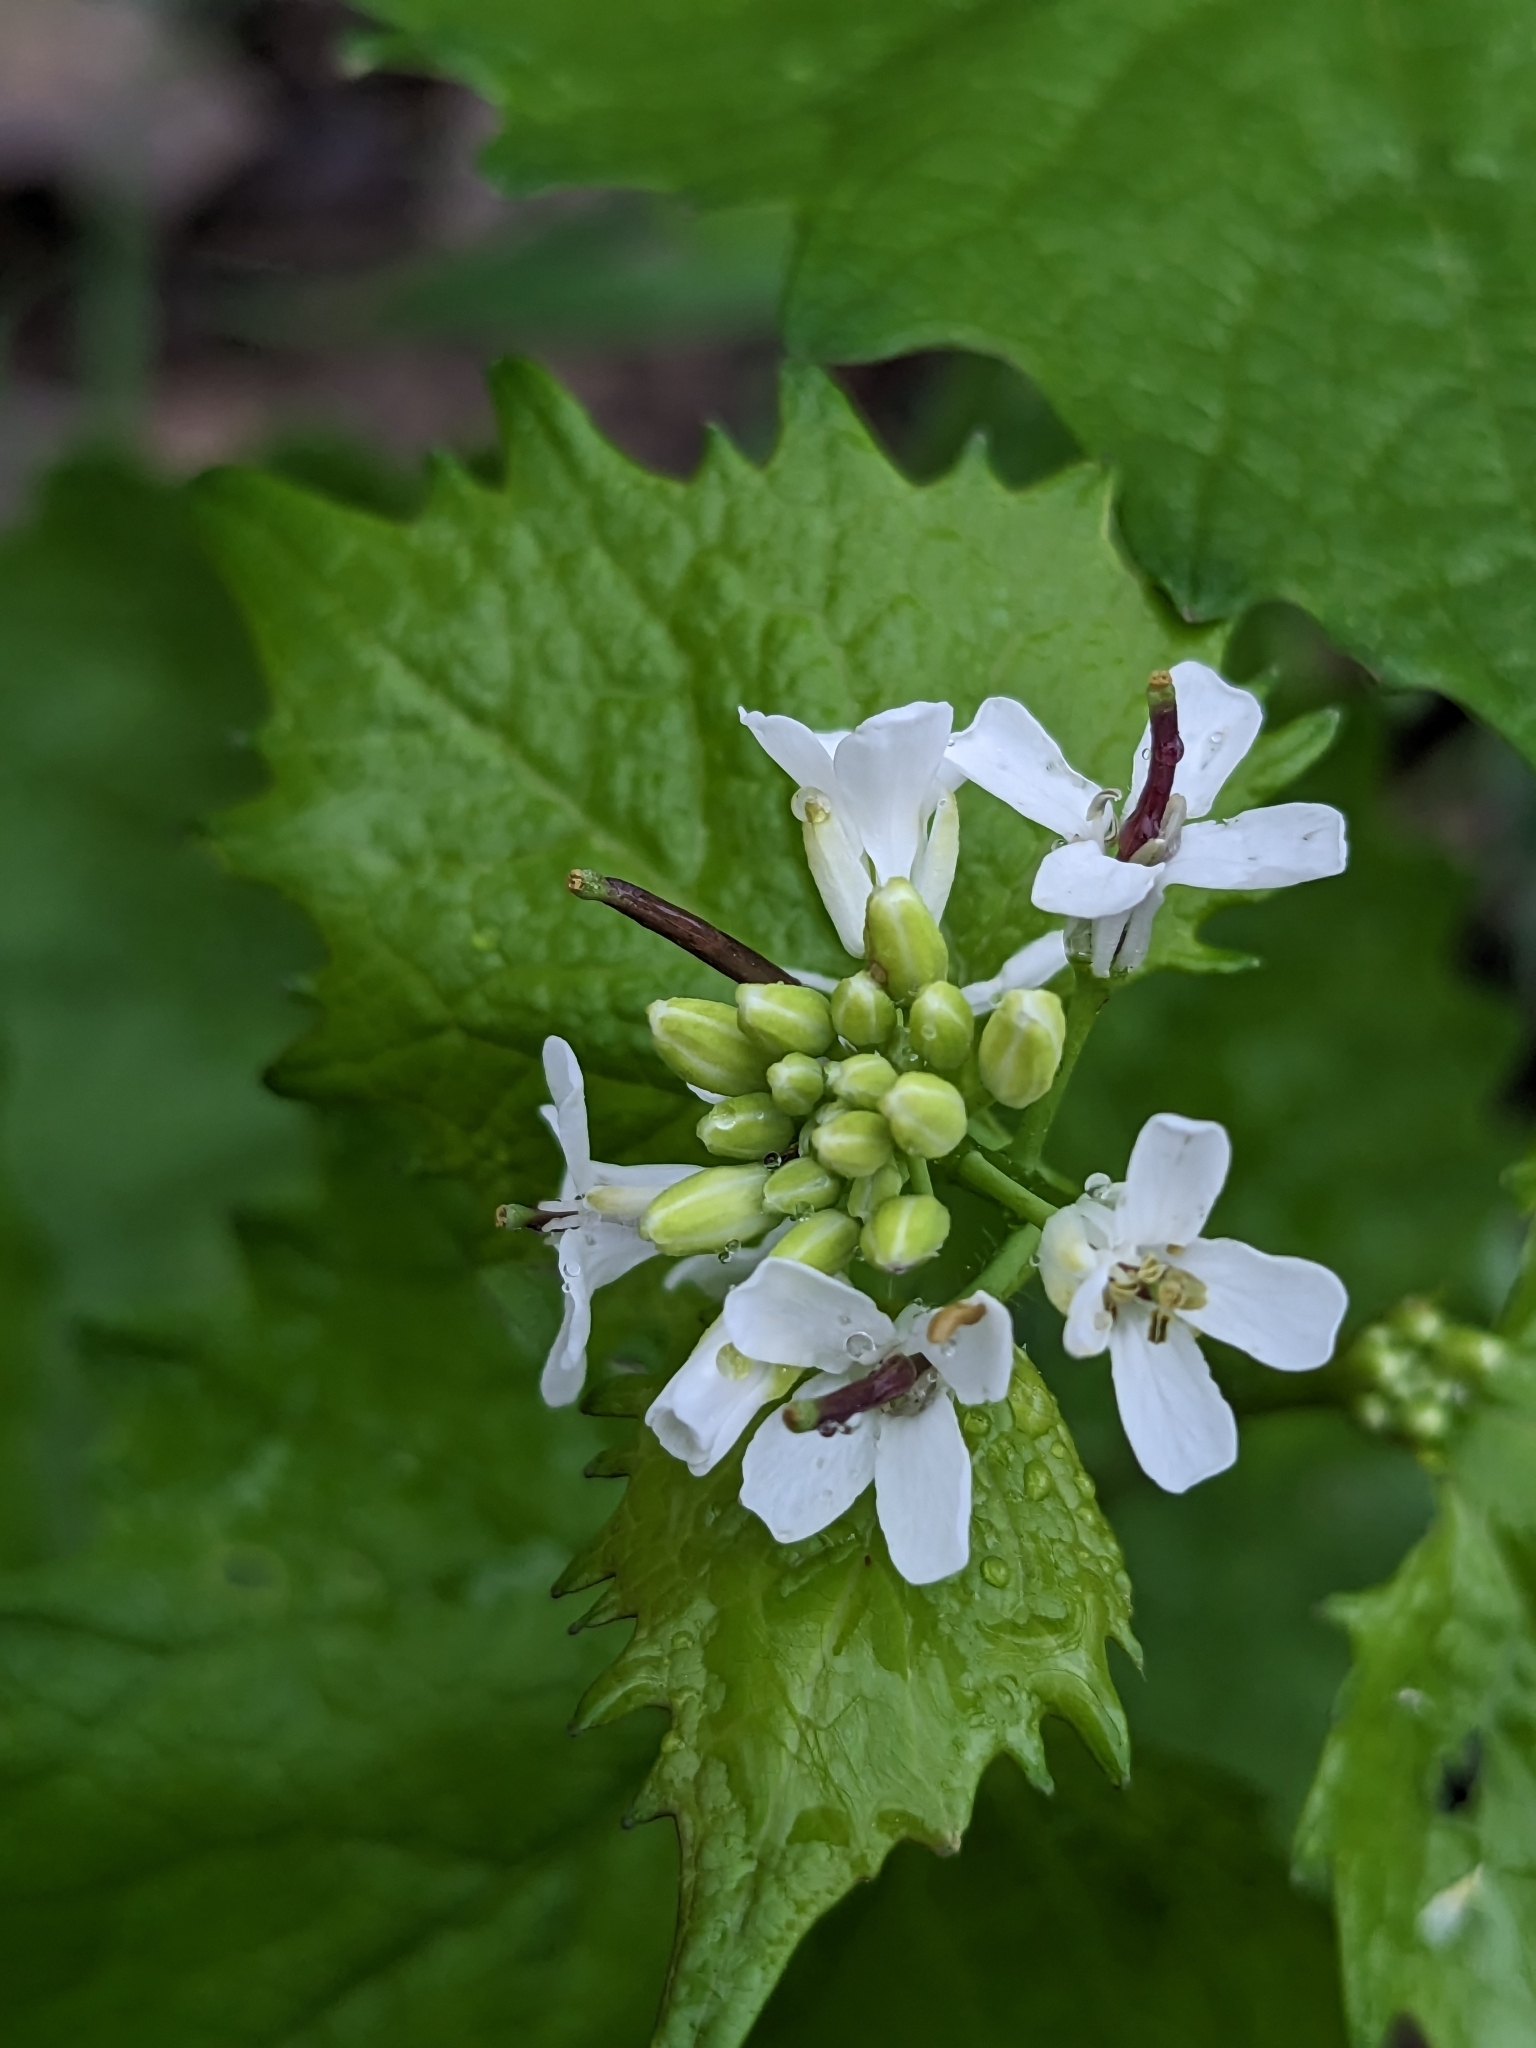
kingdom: Plantae
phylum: Tracheophyta
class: Magnoliopsida
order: Brassicales
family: Brassicaceae
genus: Alliaria
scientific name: Alliaria petiolata
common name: Garlic mustard
